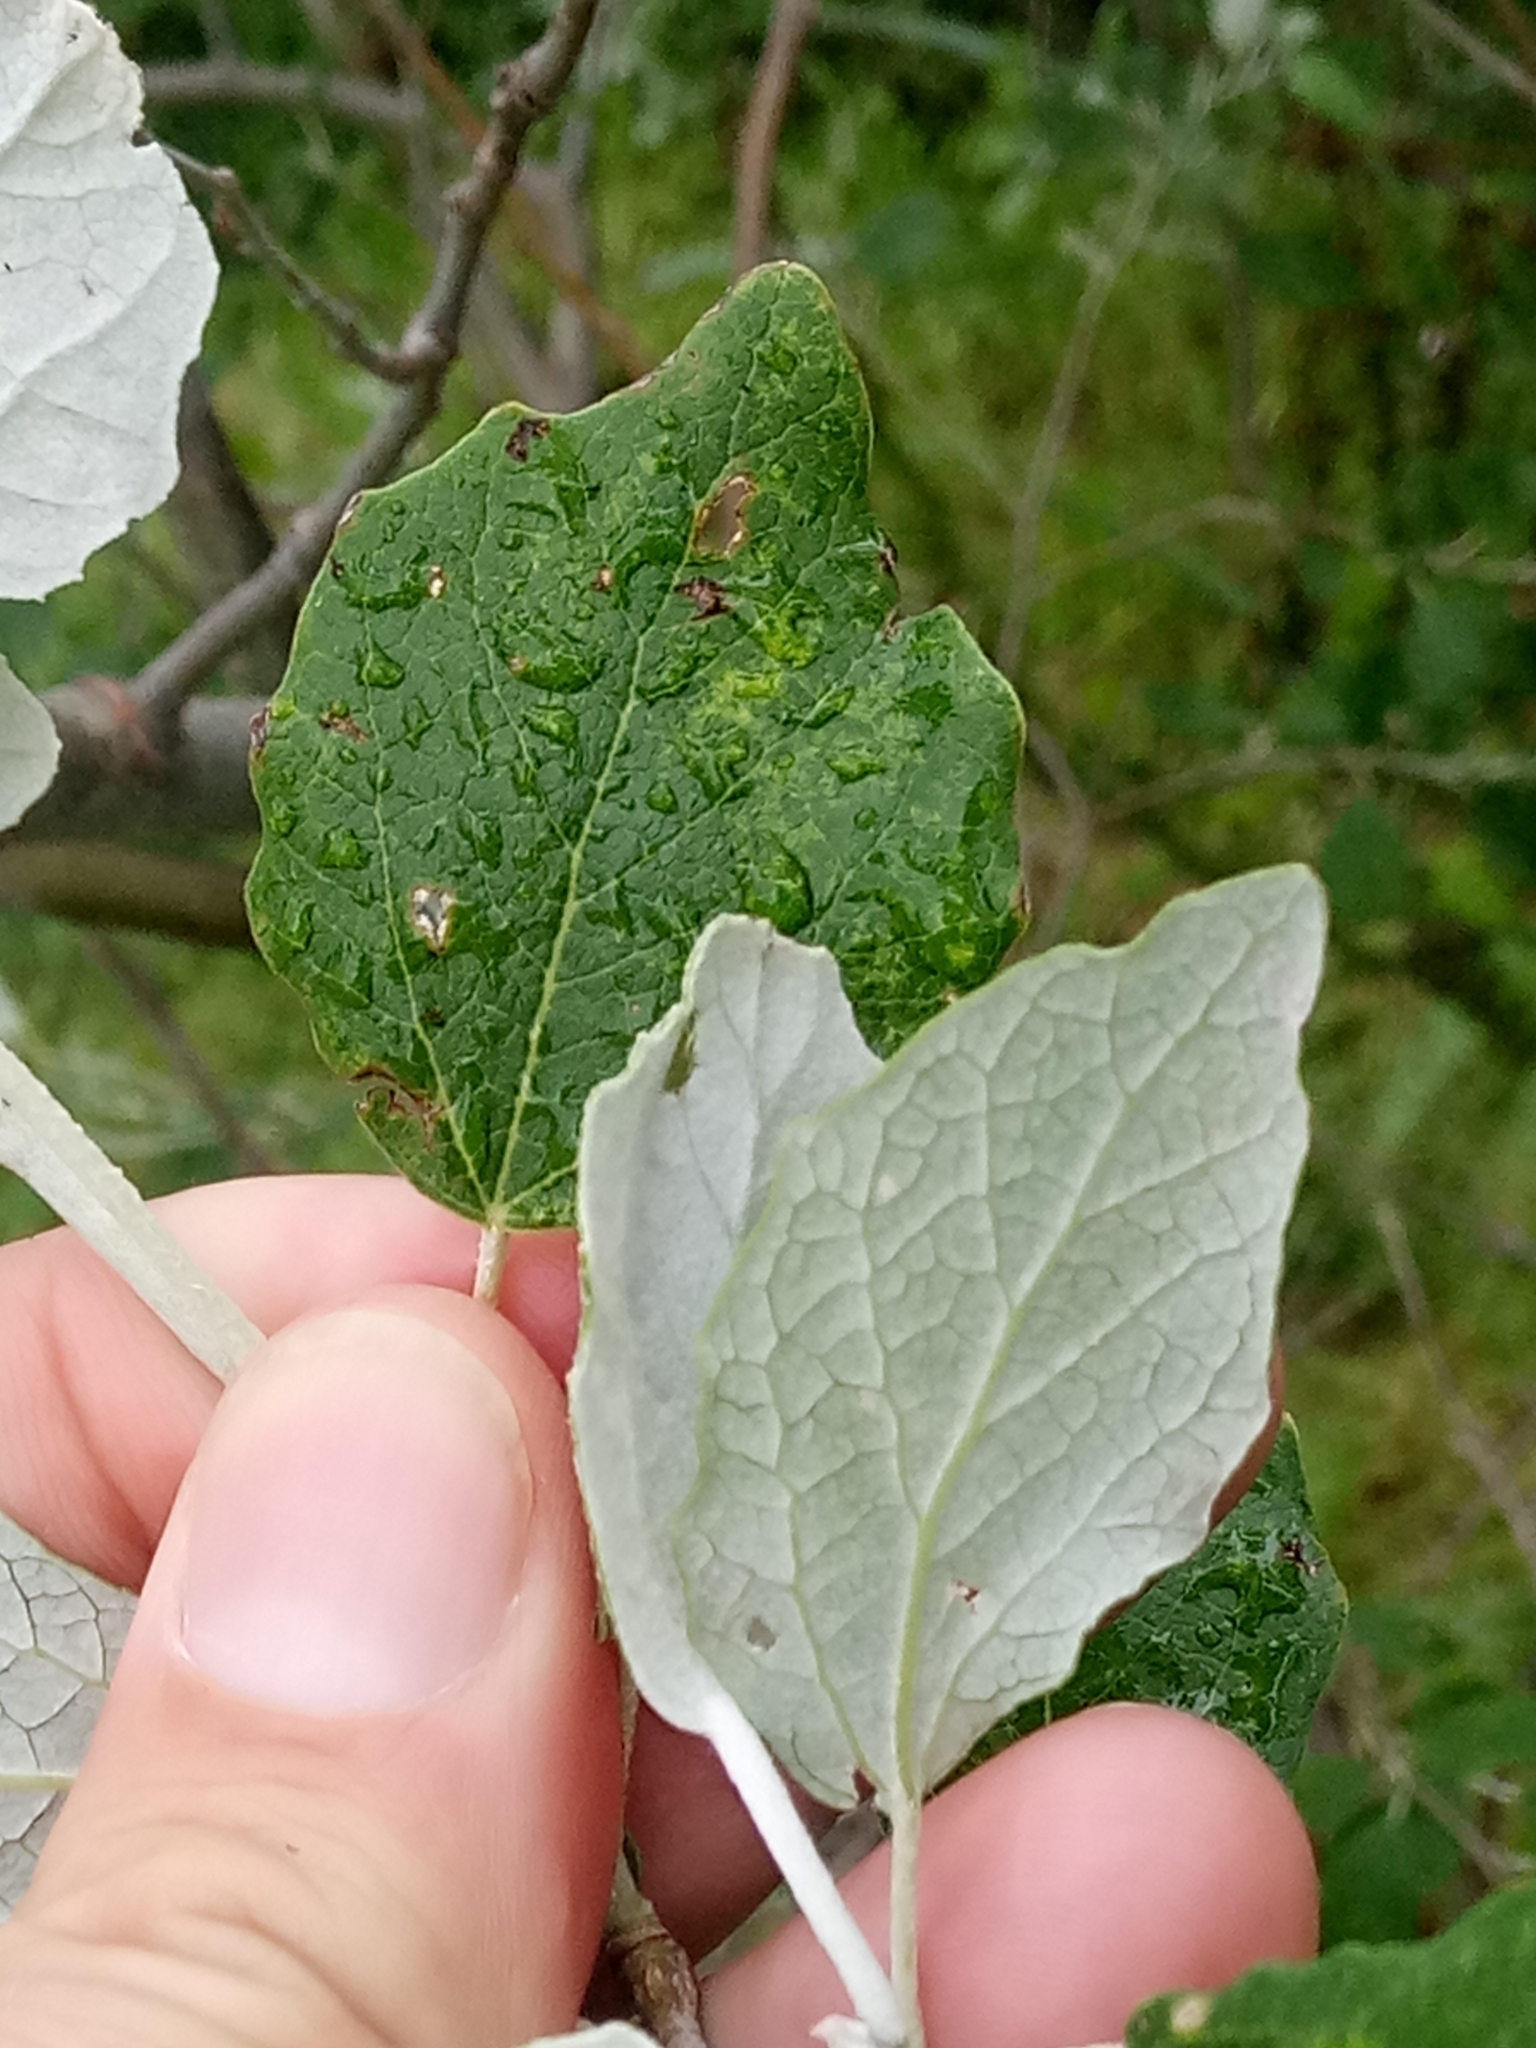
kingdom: Plantae
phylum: Tracheophyta
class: Magnoliopsida
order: Malpighiales
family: Salicaceae
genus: Populus
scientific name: Populus alba
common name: White poplar
